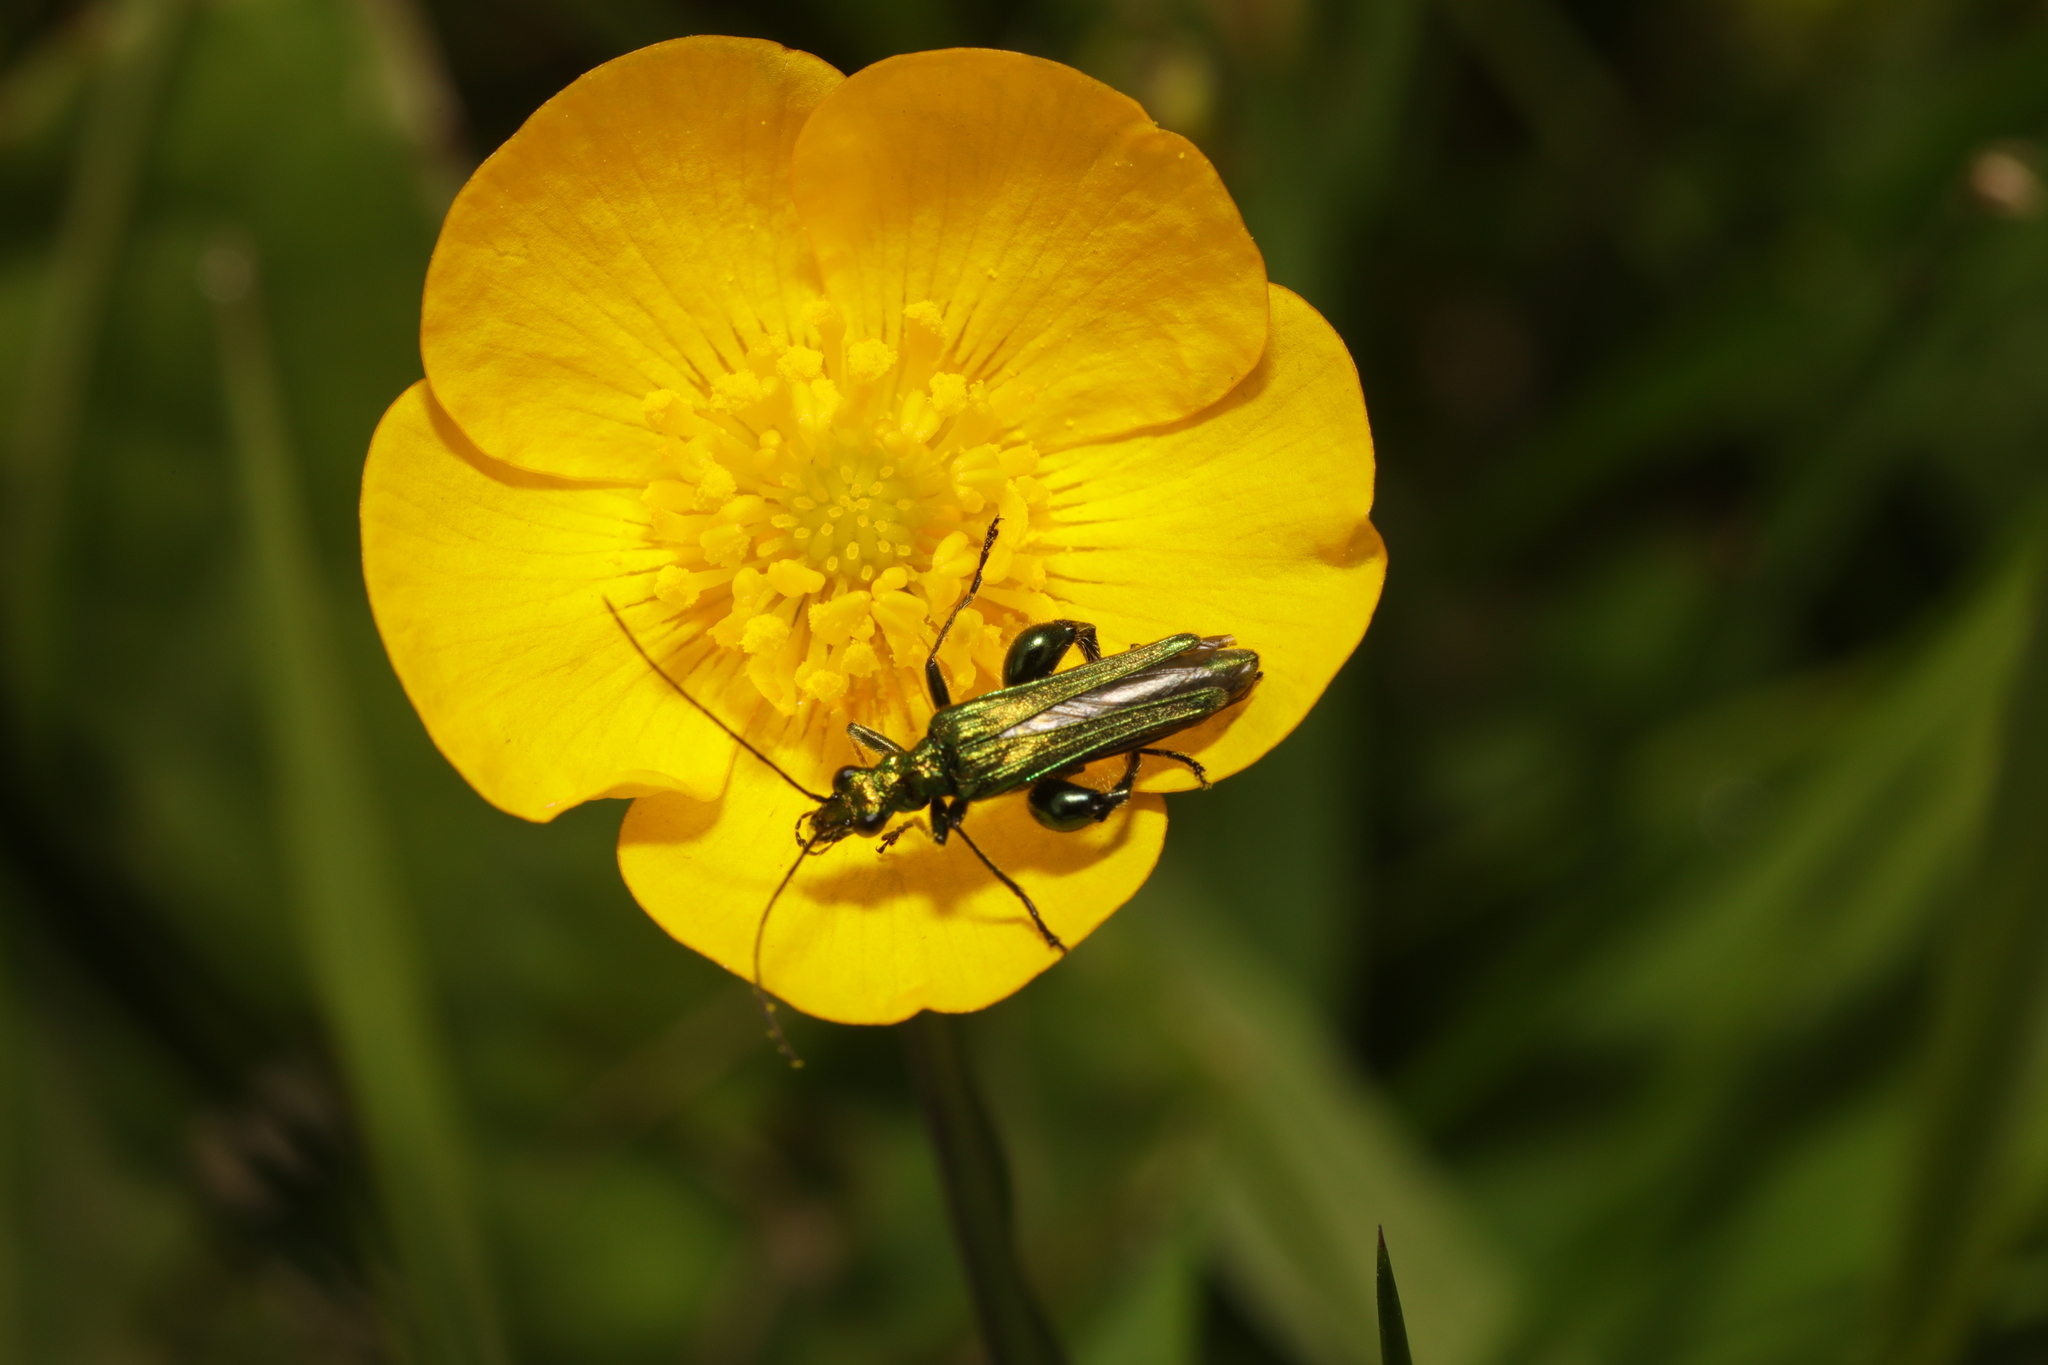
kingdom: Animalia
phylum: Arthropoda
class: Insecta
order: Coleoptera
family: Oedemeridae
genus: Oedemera
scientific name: Oedemera nobilis
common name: Swollen-thighed beetle
